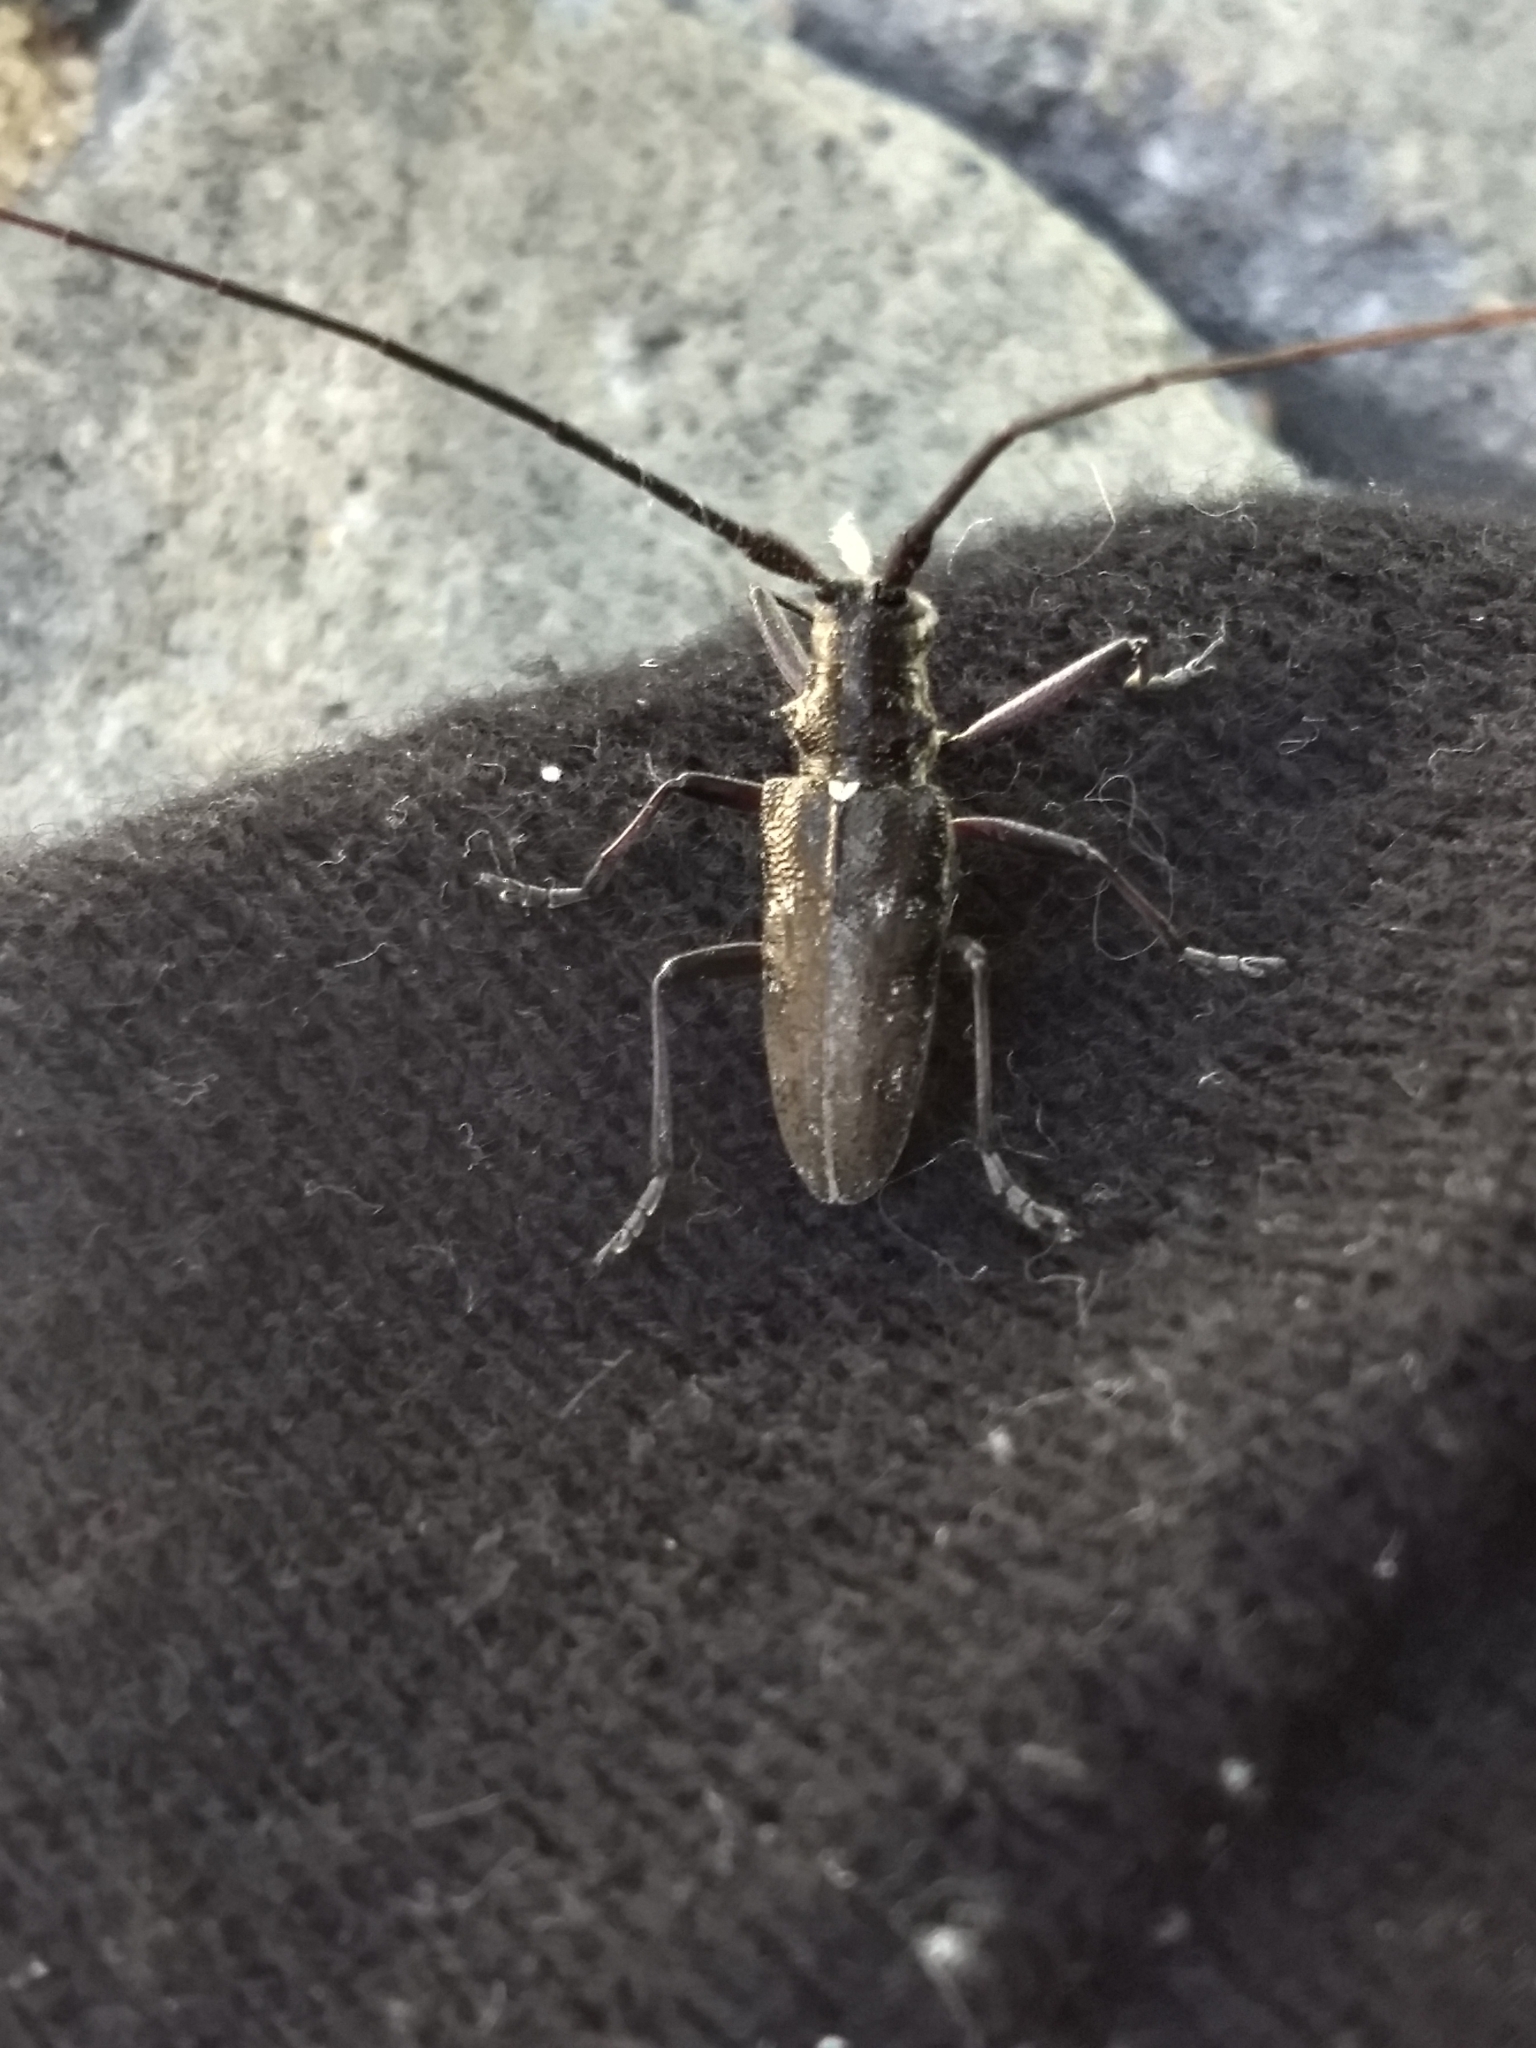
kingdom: Animalia
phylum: Arthropoda
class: Insecta
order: Coleoptera
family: Cerambycidae
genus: Monochamus
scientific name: Monochamus scutellatus
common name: White-spotted sawyer beetle
